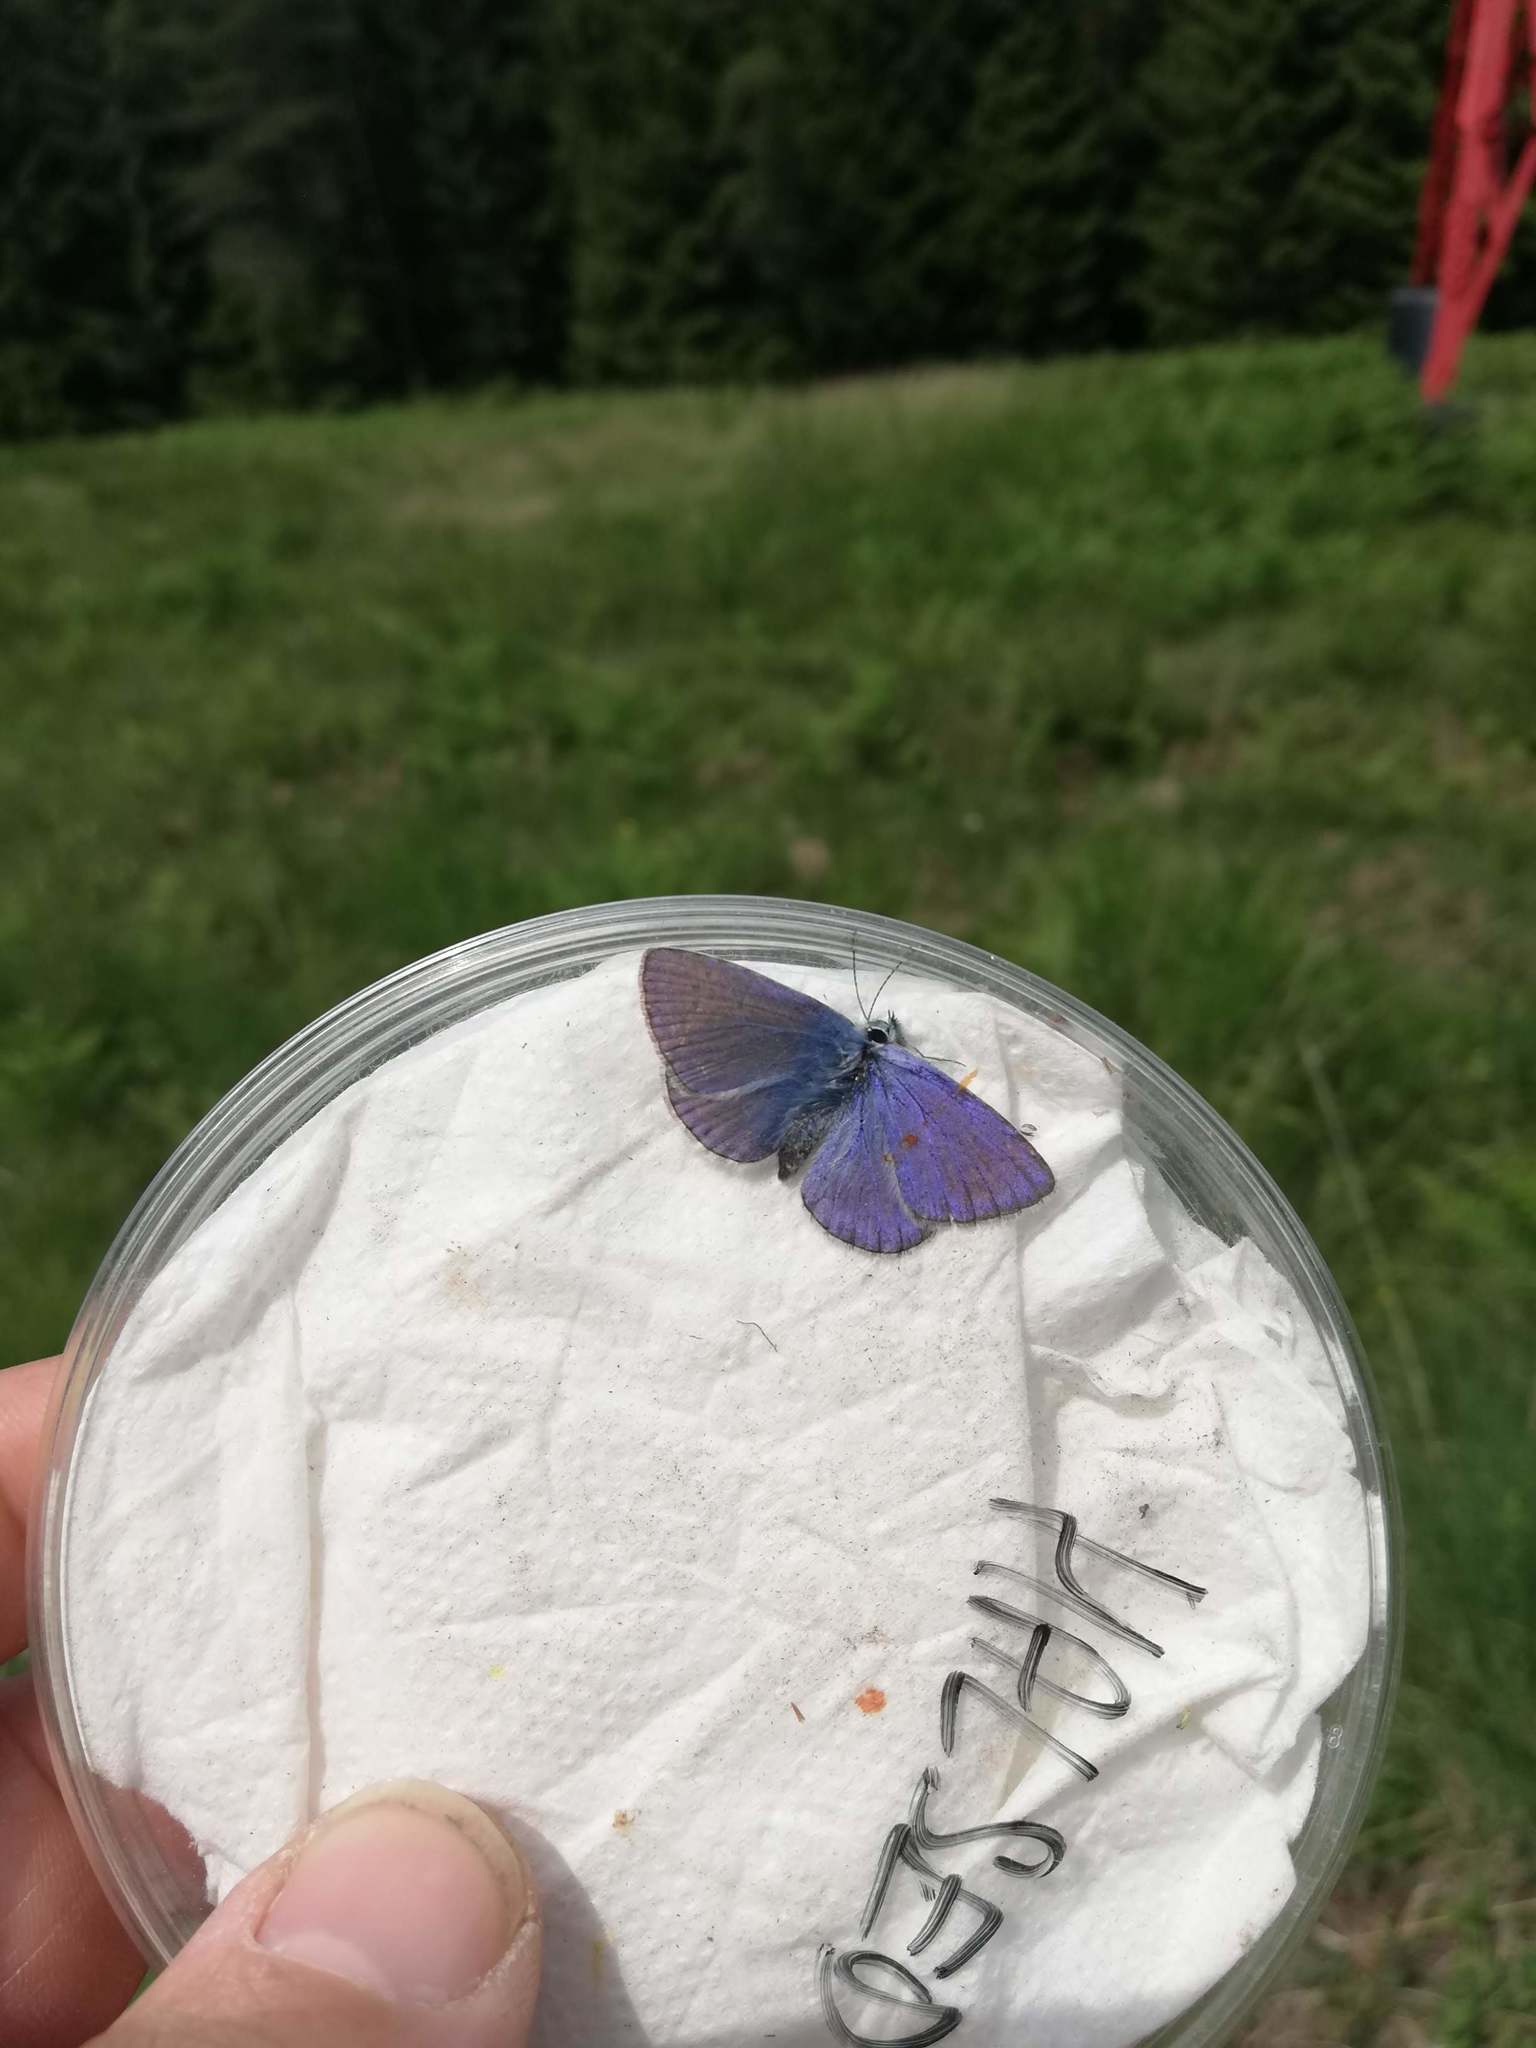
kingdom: Animalia
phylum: Arthropoda
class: Insecta
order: Lepidoptera
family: Lycaenidae
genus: Polyommatus
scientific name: Polyommatus icarus
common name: Common blue
